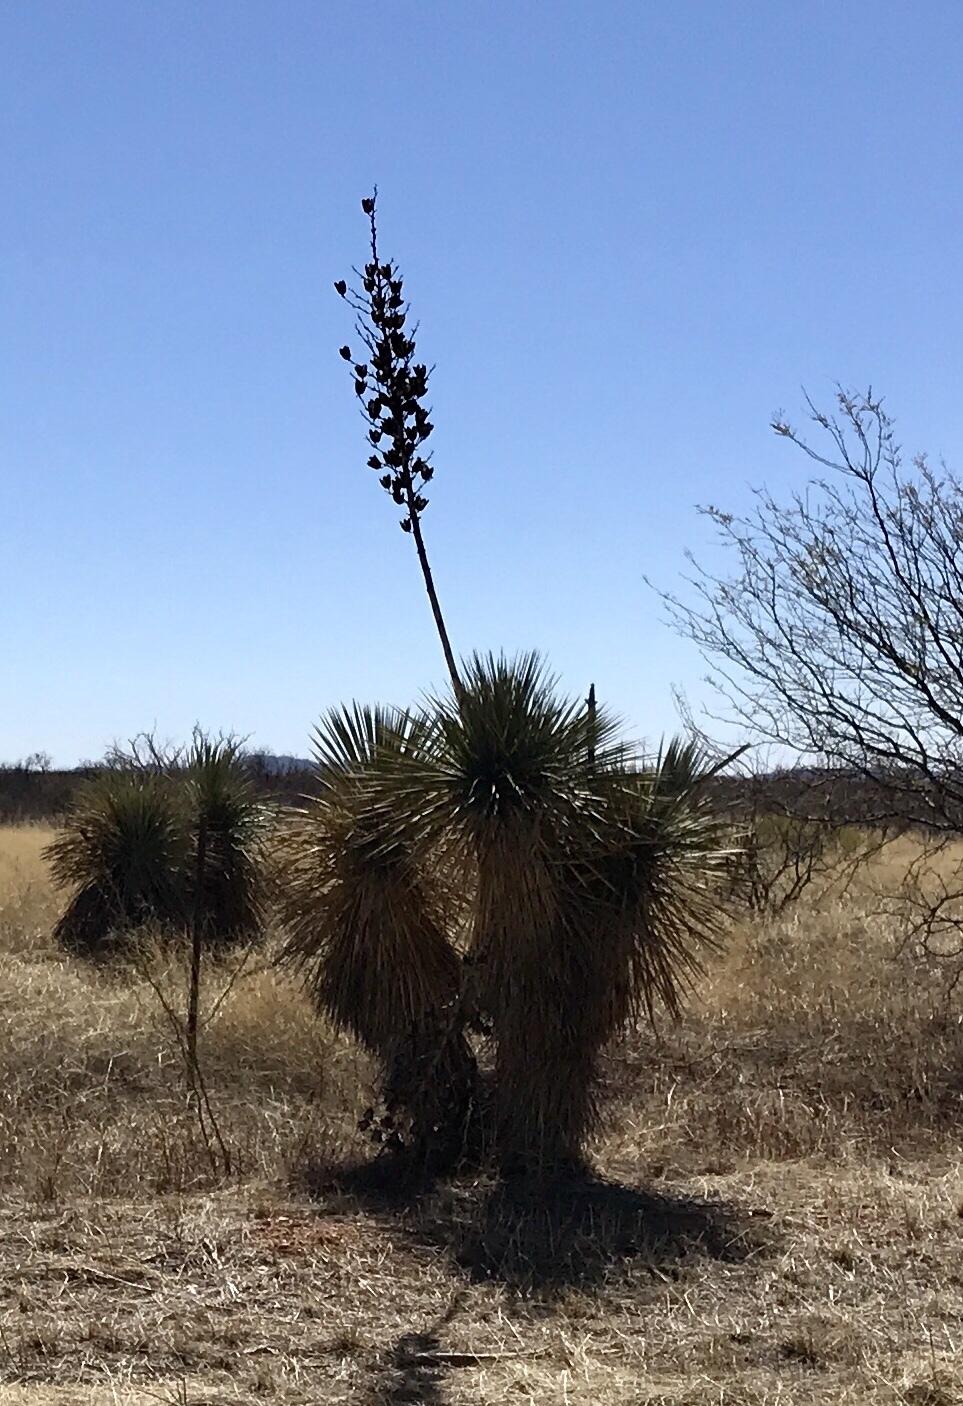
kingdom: Plantae
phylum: Tracheophyta
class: Liliopsida
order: Asparagales
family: Asparagaceae
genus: Yucca
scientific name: Yucca elata
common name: Palmella
